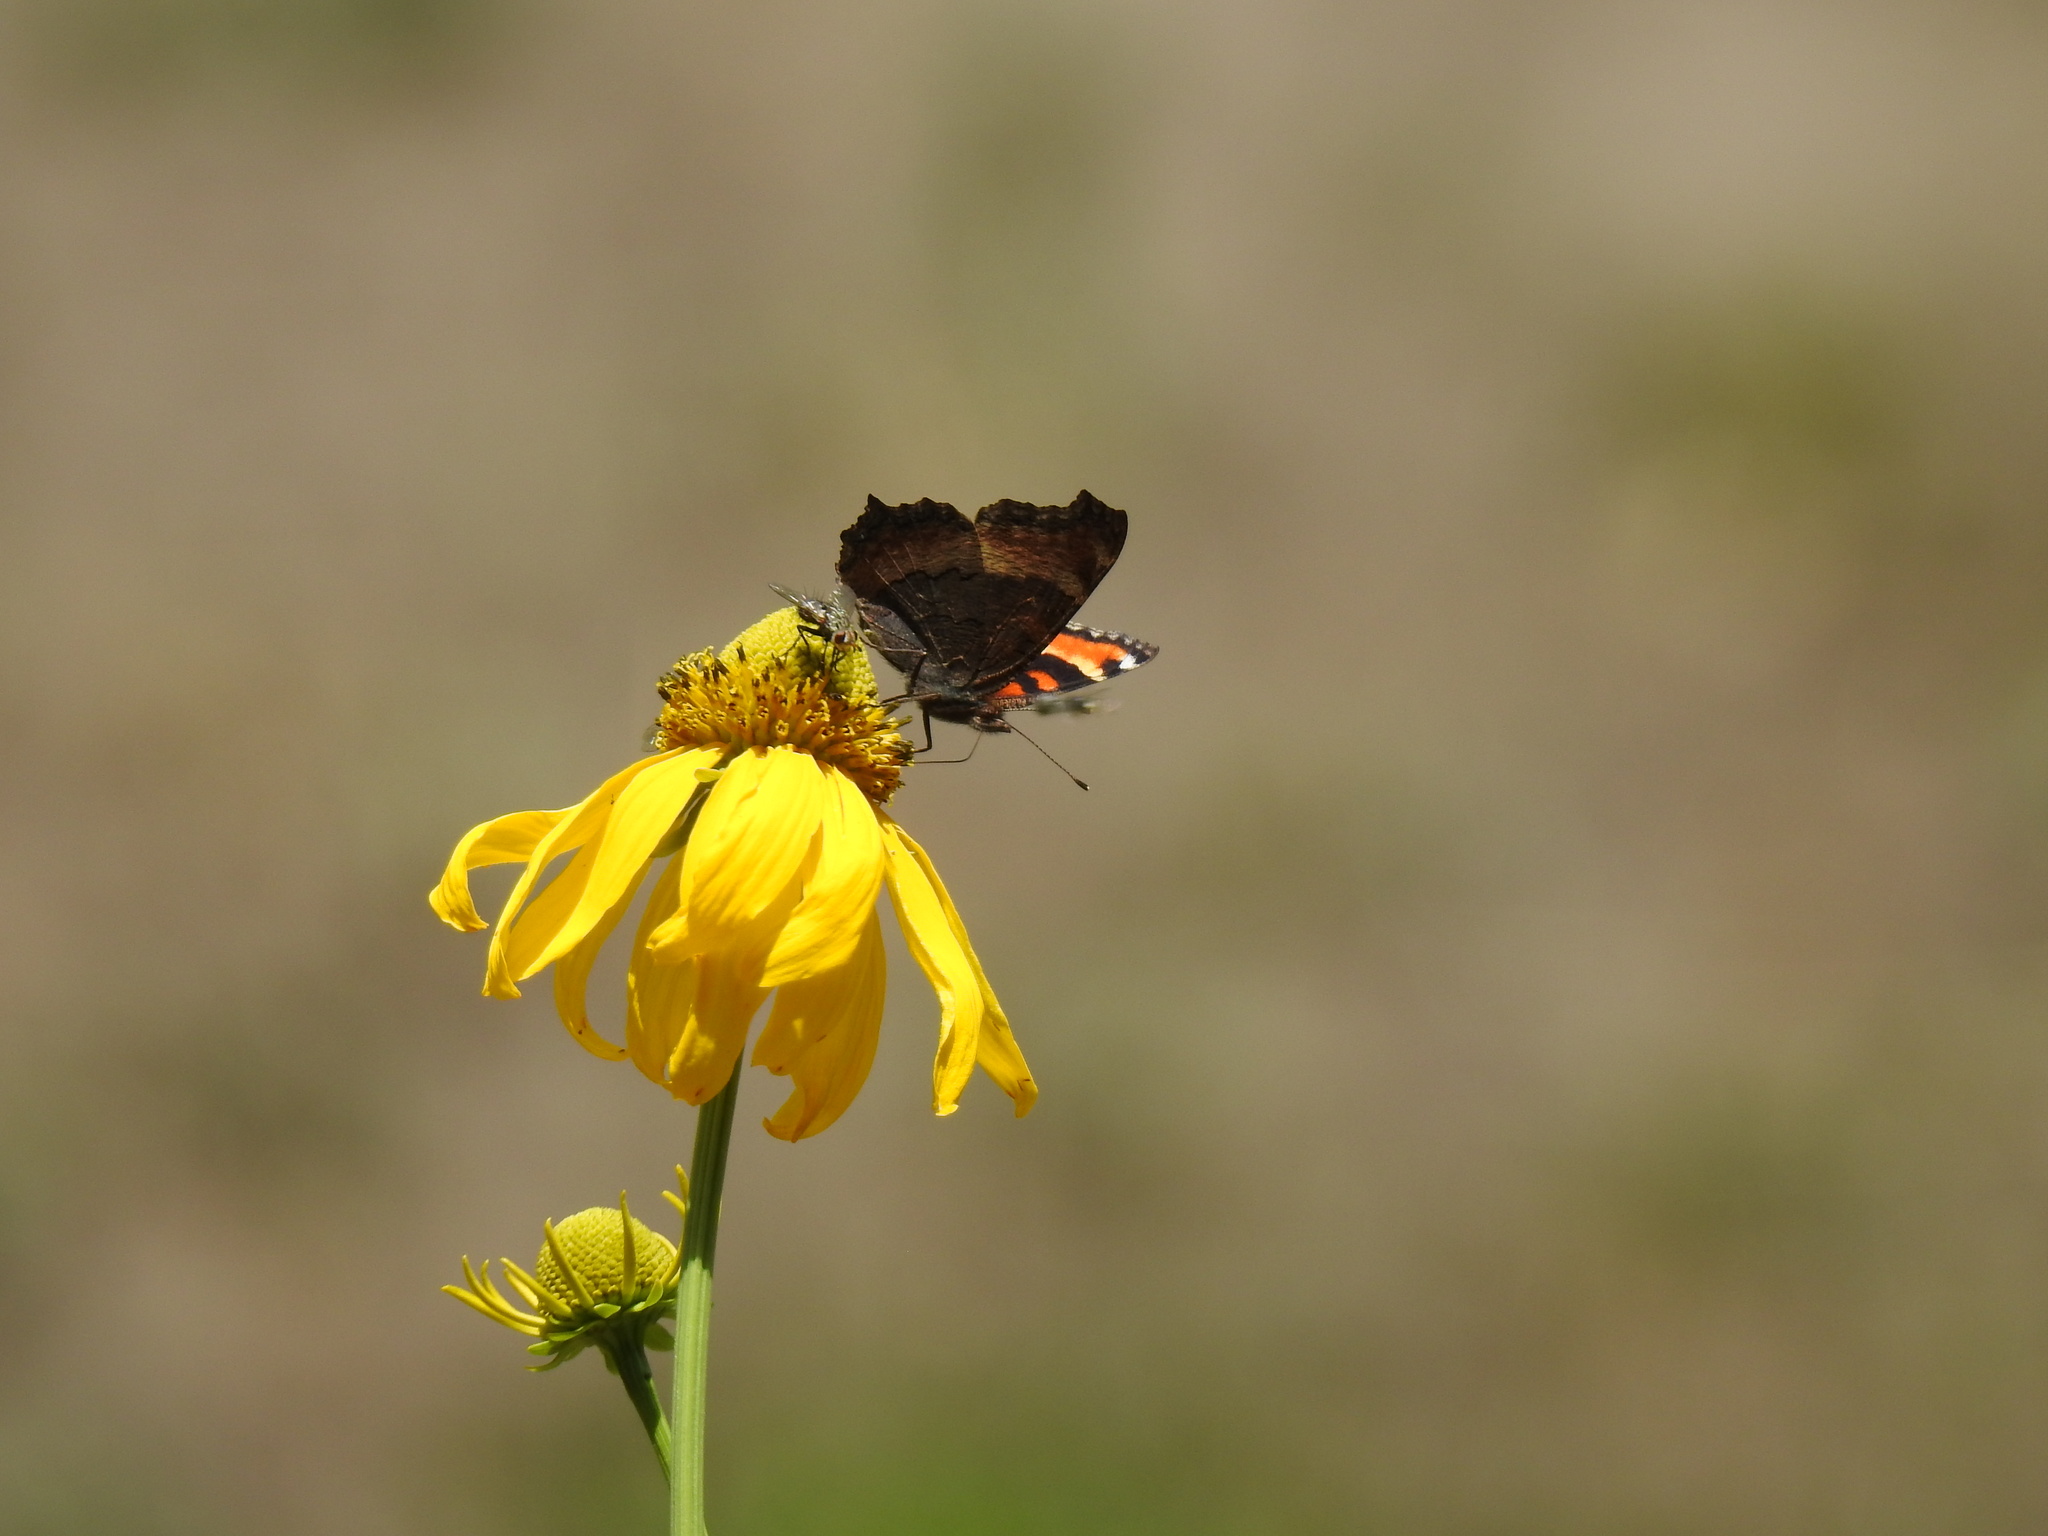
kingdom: Animalia
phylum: Arthropoda
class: Insecta
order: Lepidoptera
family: Nymphalidae
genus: Aglais
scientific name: Aglais milberti
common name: Milbert's tortoiseshell
